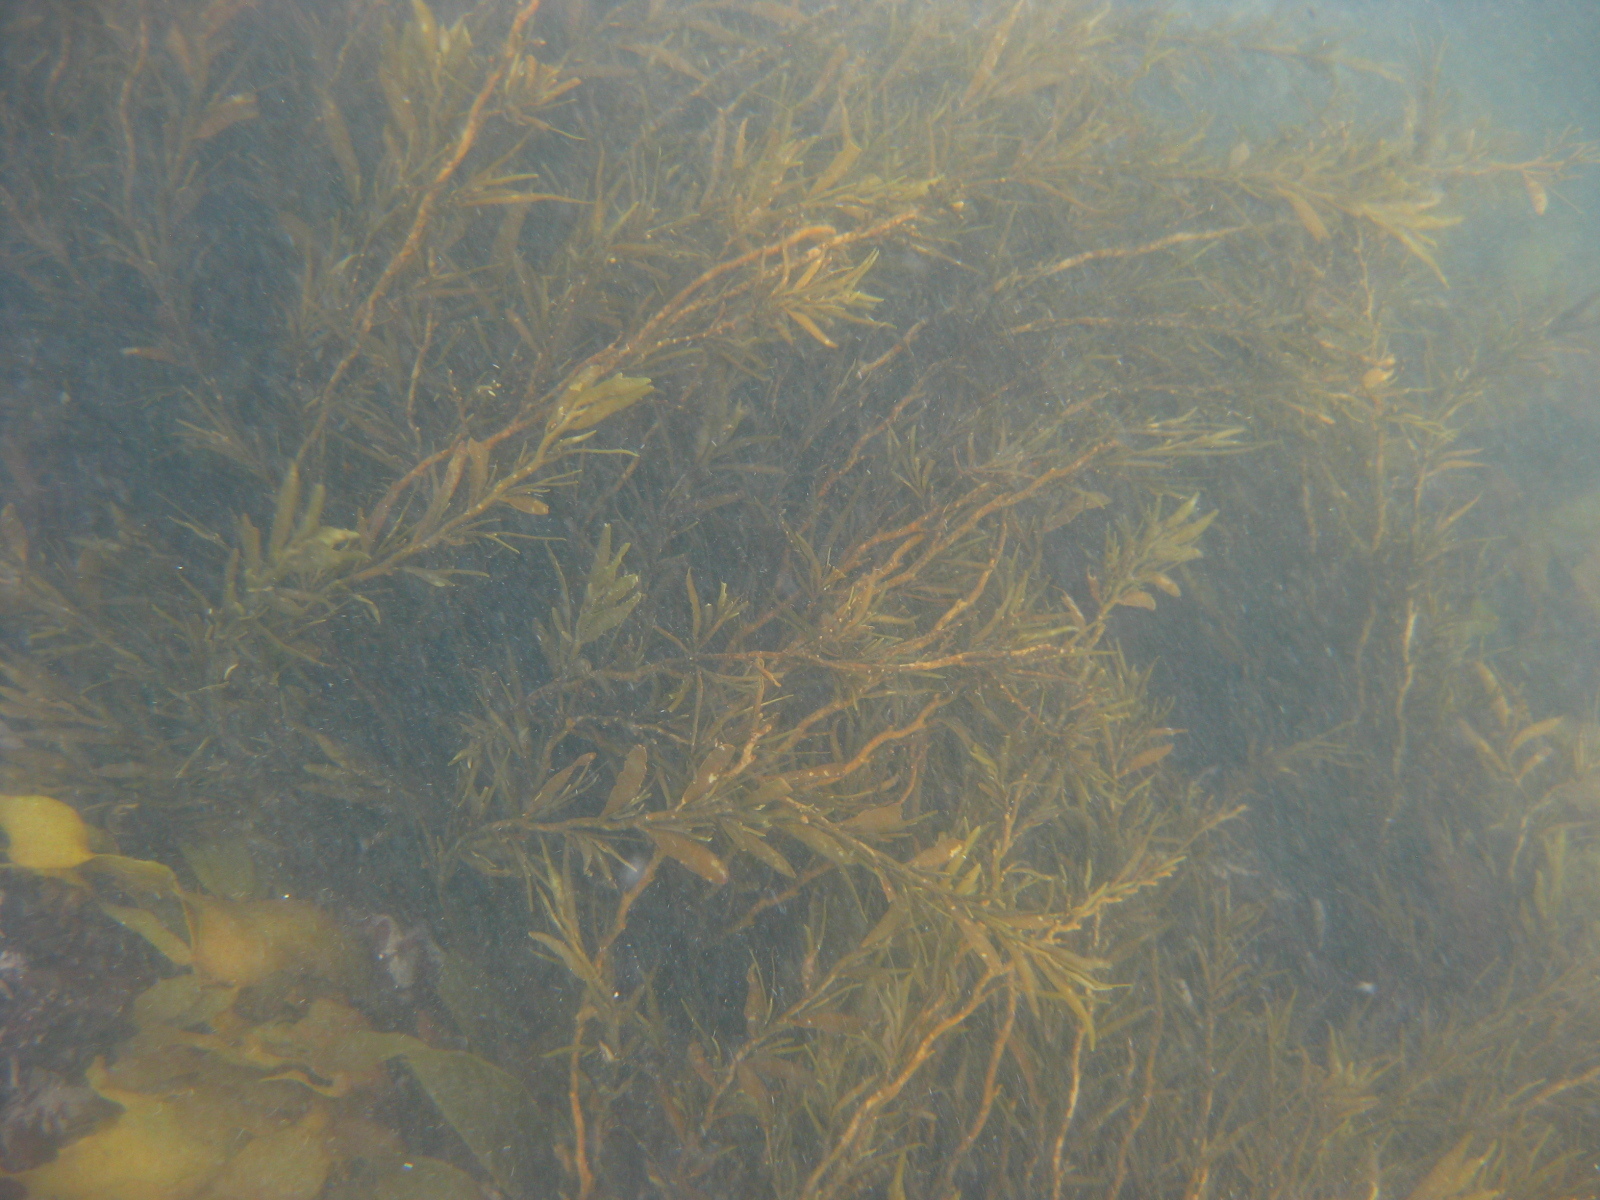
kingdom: Chromista
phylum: Ochrophyta
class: Phaeophyceae
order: Fucales
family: Sargassaceae
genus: Carpophyllum
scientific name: Carpophyllum angustifolium
